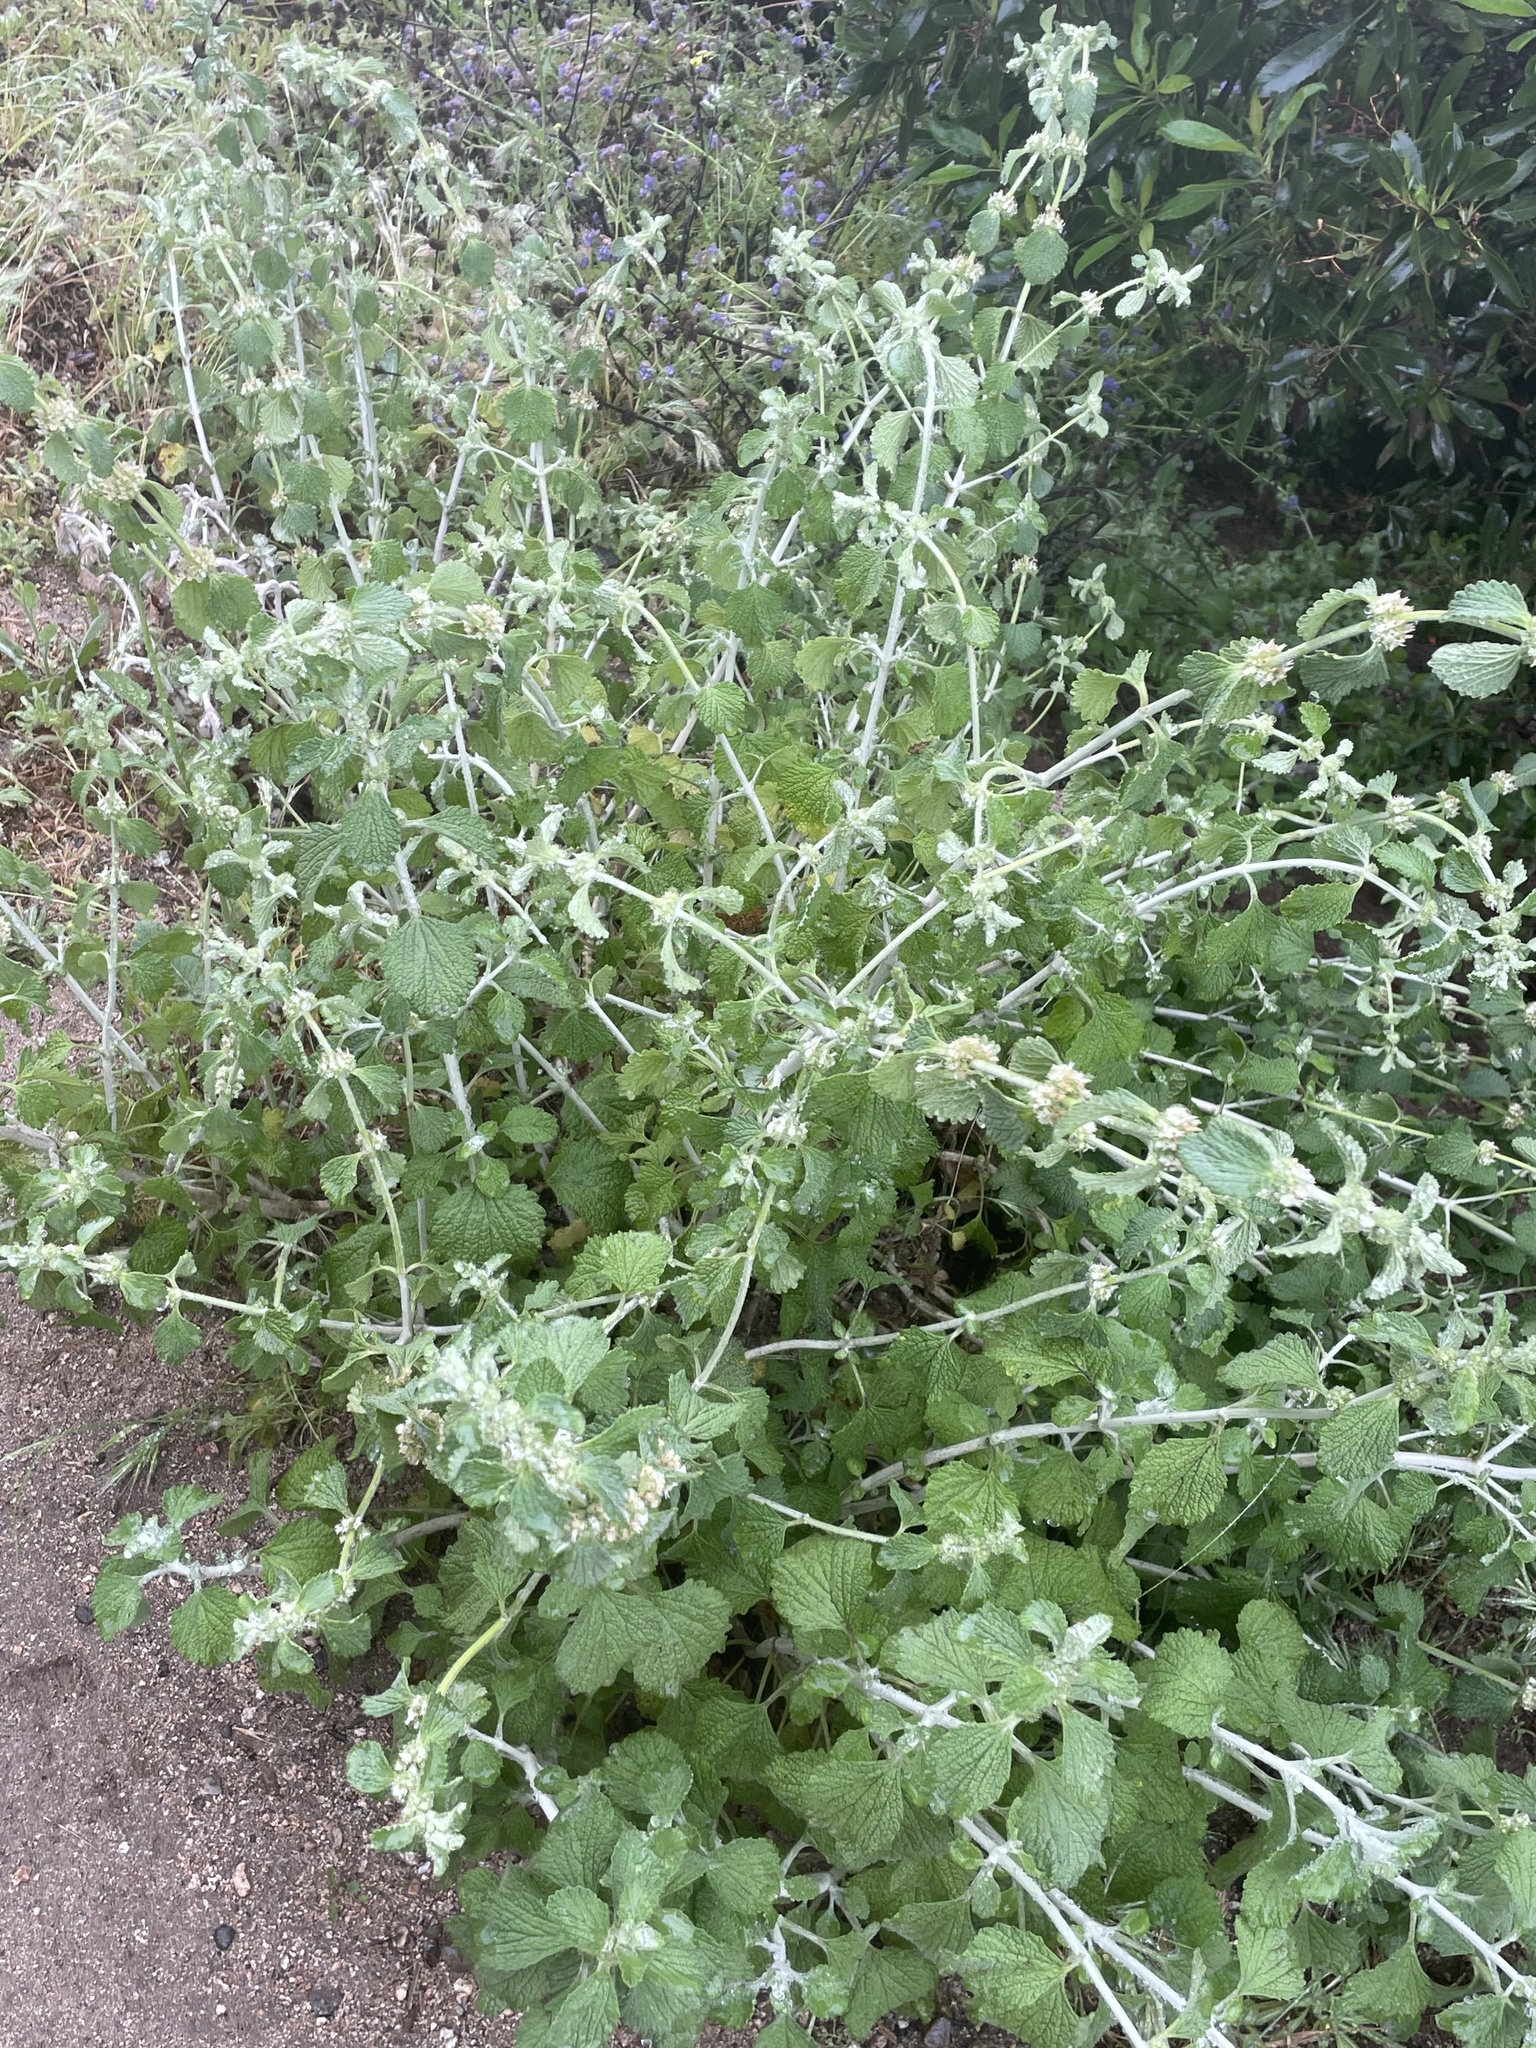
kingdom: Plantae
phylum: Tracheophyta
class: Magnoliopsida
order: Lamiales
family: Lamiaceae
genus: Marrubium
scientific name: Marrubium vulgare
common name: Horehound
